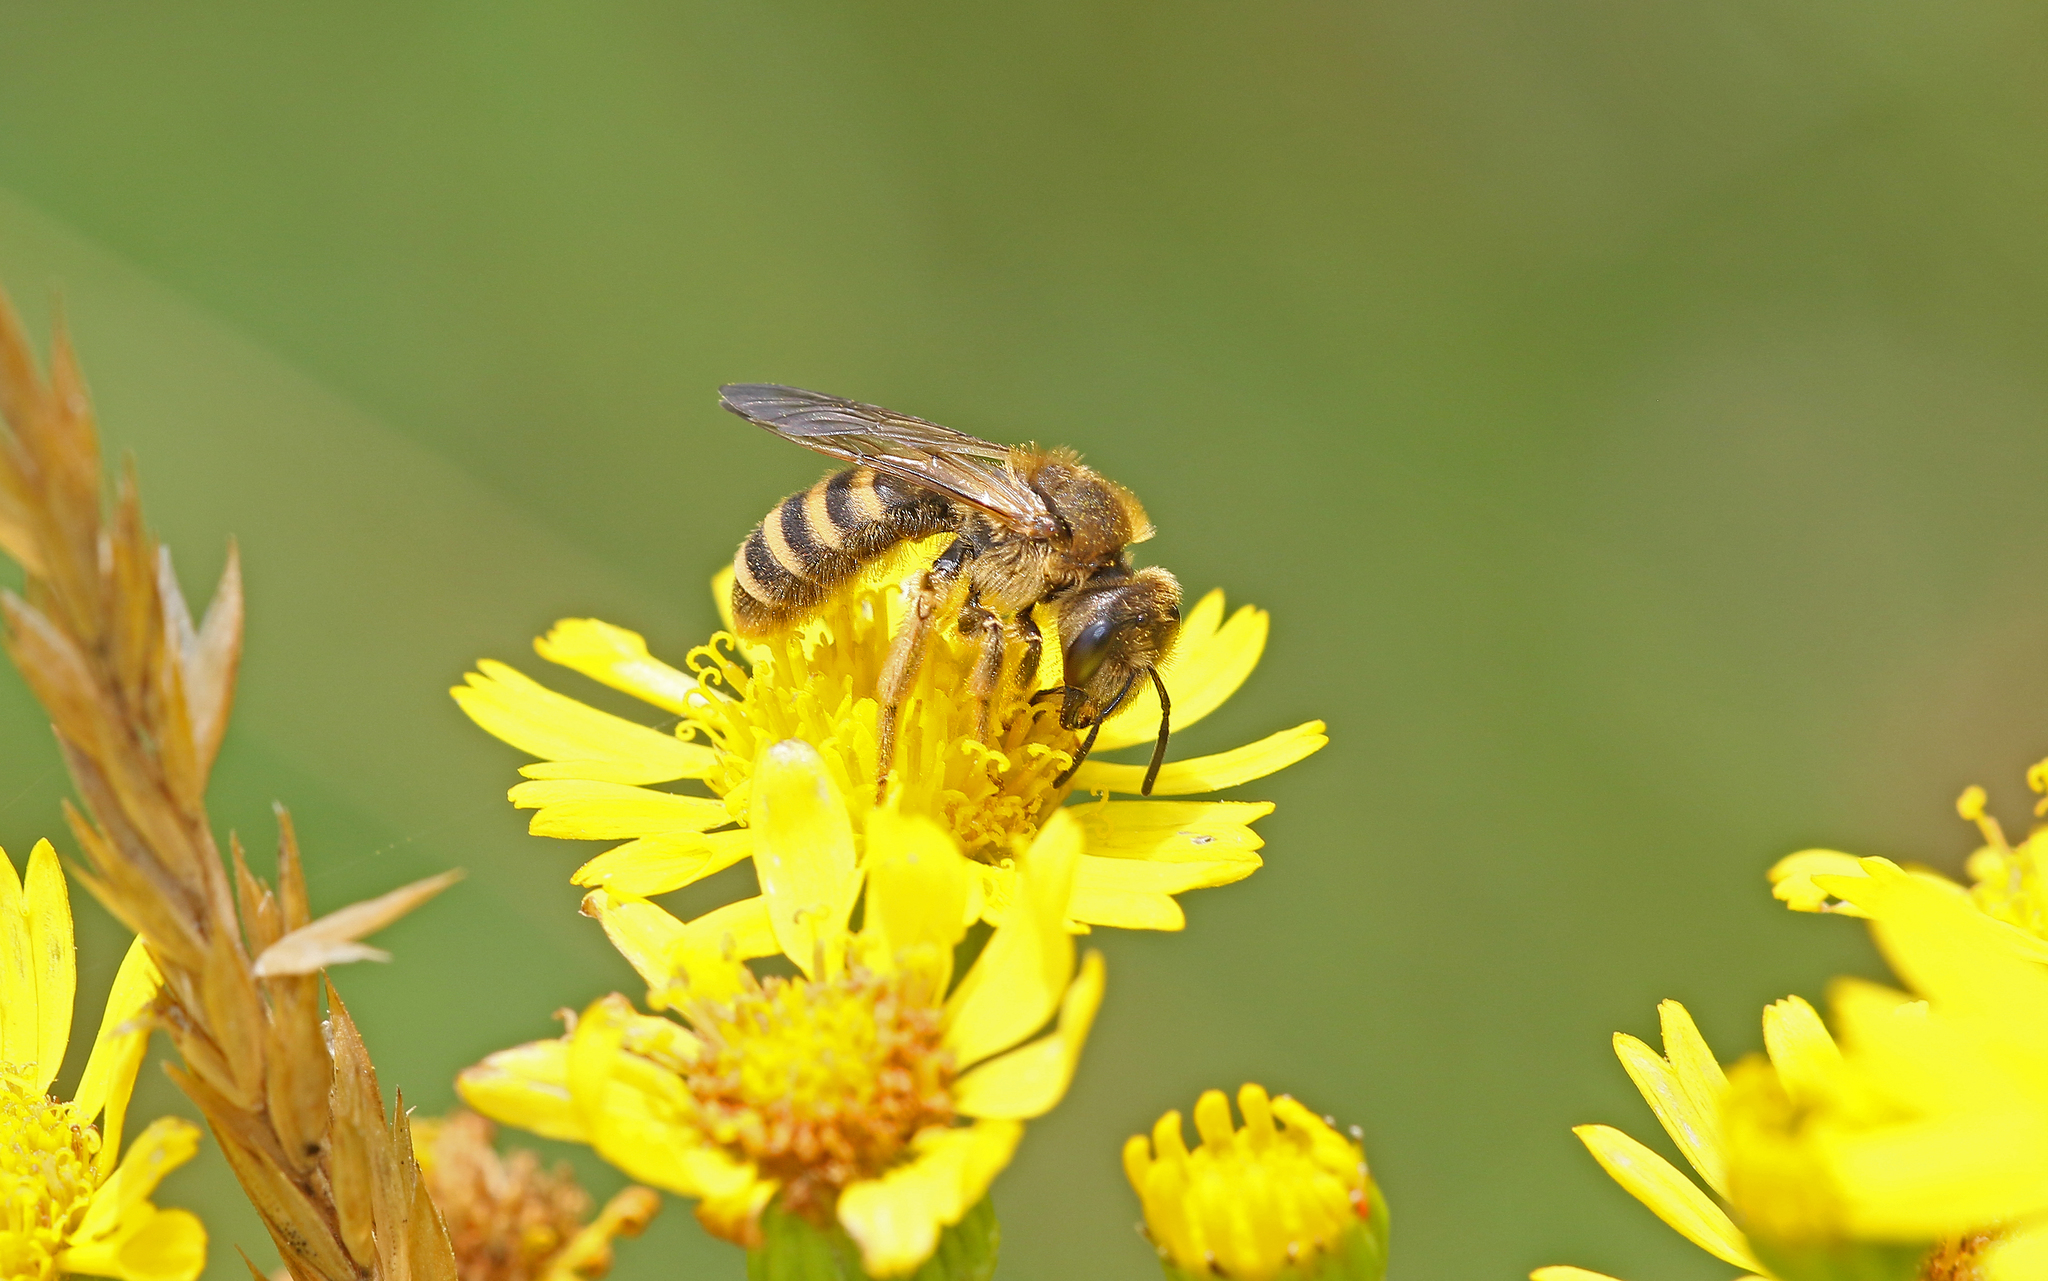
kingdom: Animalia
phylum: Arthropoda
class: Insecta
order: Hymenoptera
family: Halictidae
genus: Halictus
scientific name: Halictus scabiosae
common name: Great banded furrow bee
